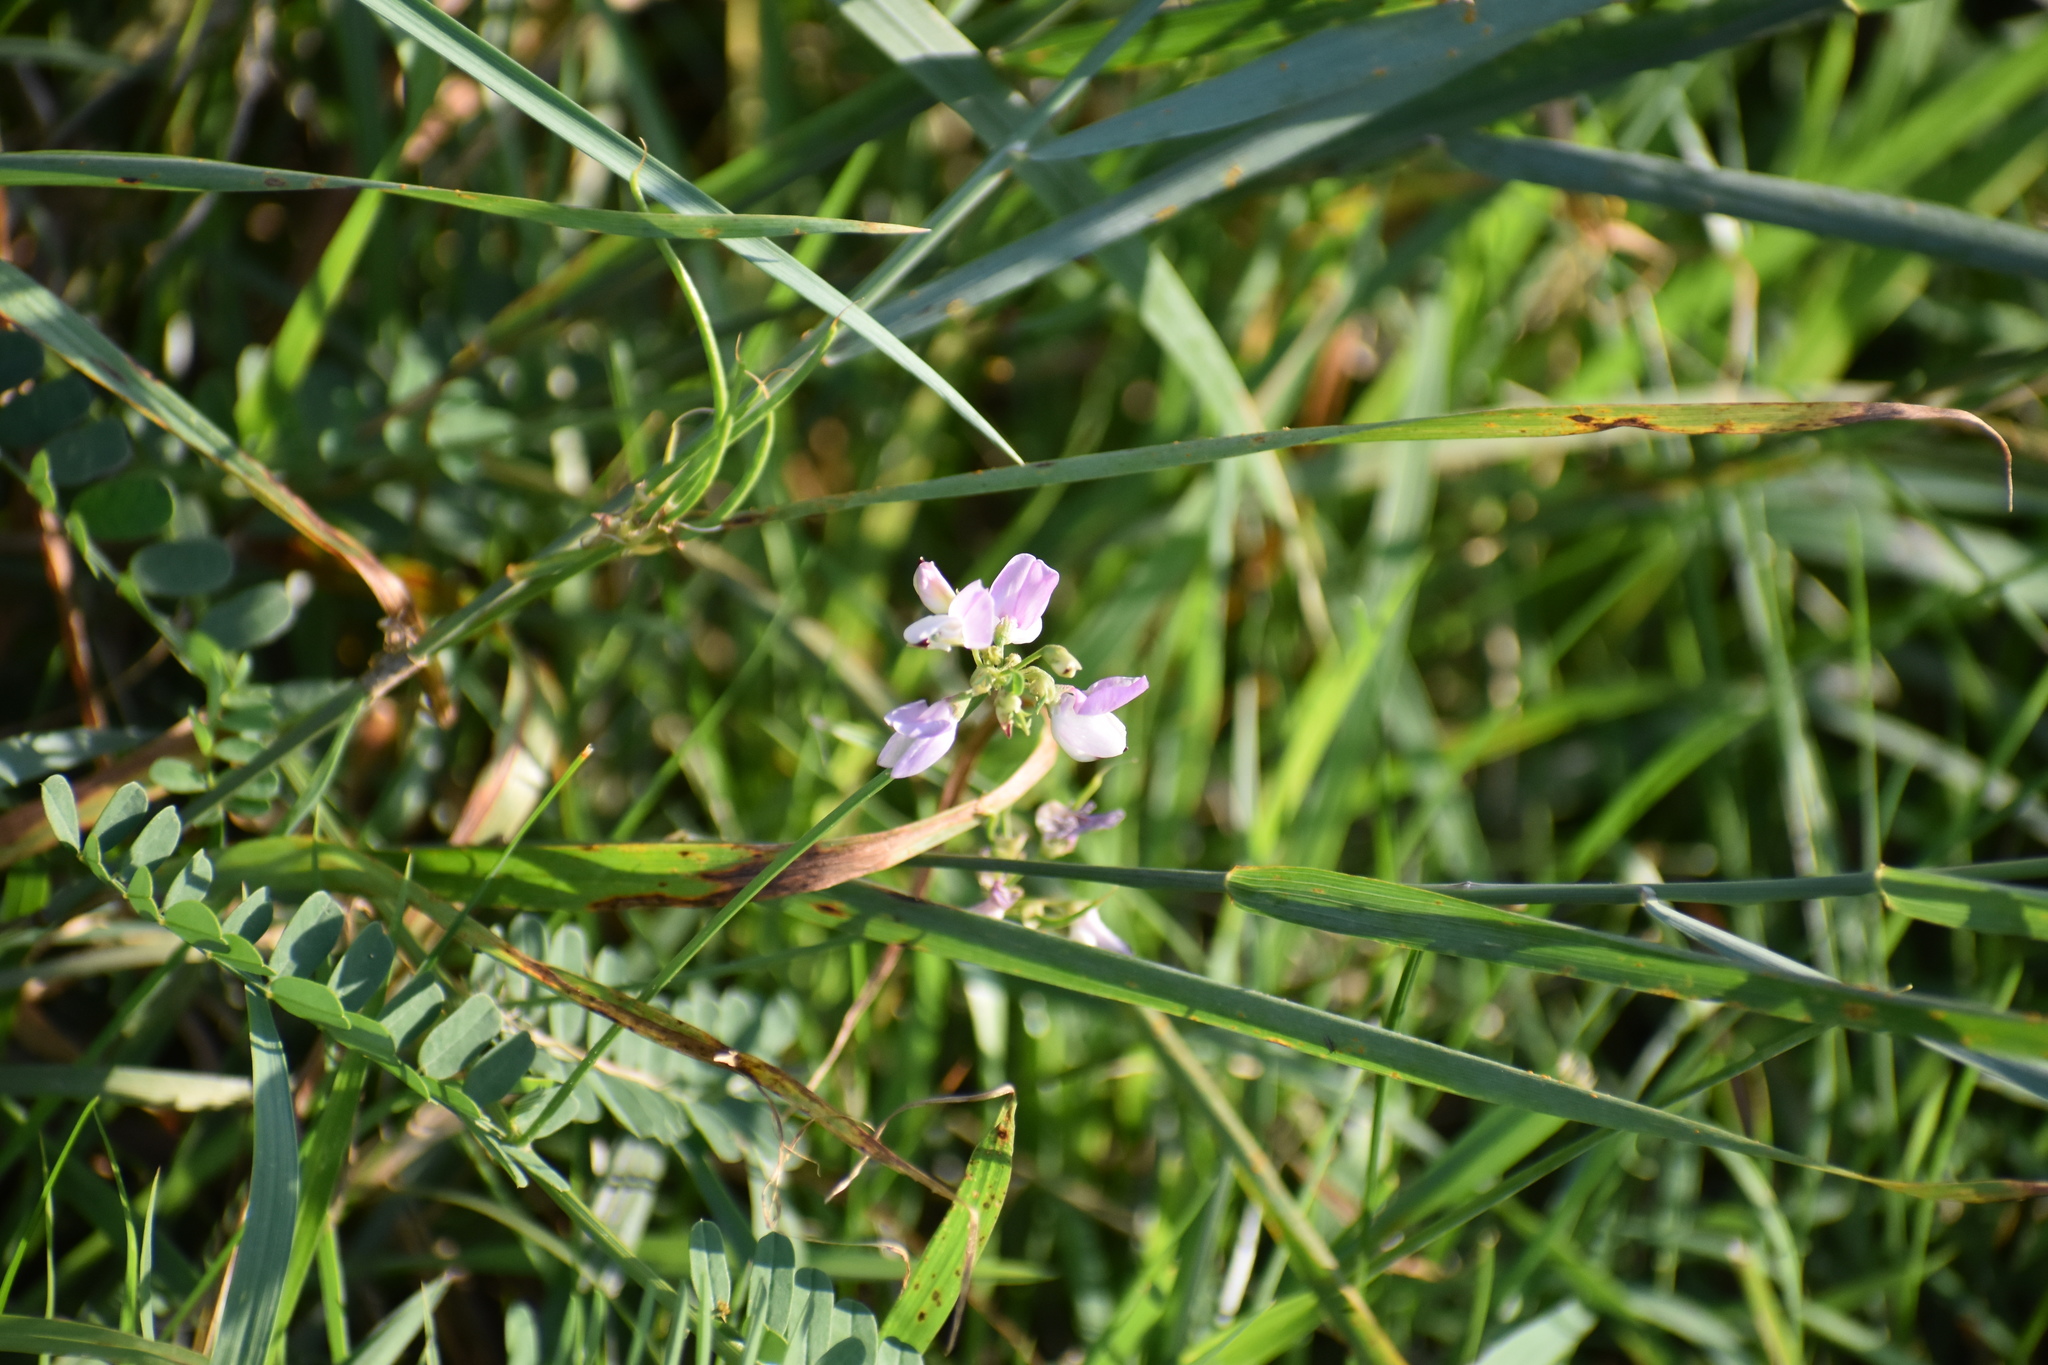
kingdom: Plantae
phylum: Tracheophyta
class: Magnoliopsida
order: Fabales
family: Fabaceae
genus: Coronilla
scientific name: Coronilla varia
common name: Crownvetch
